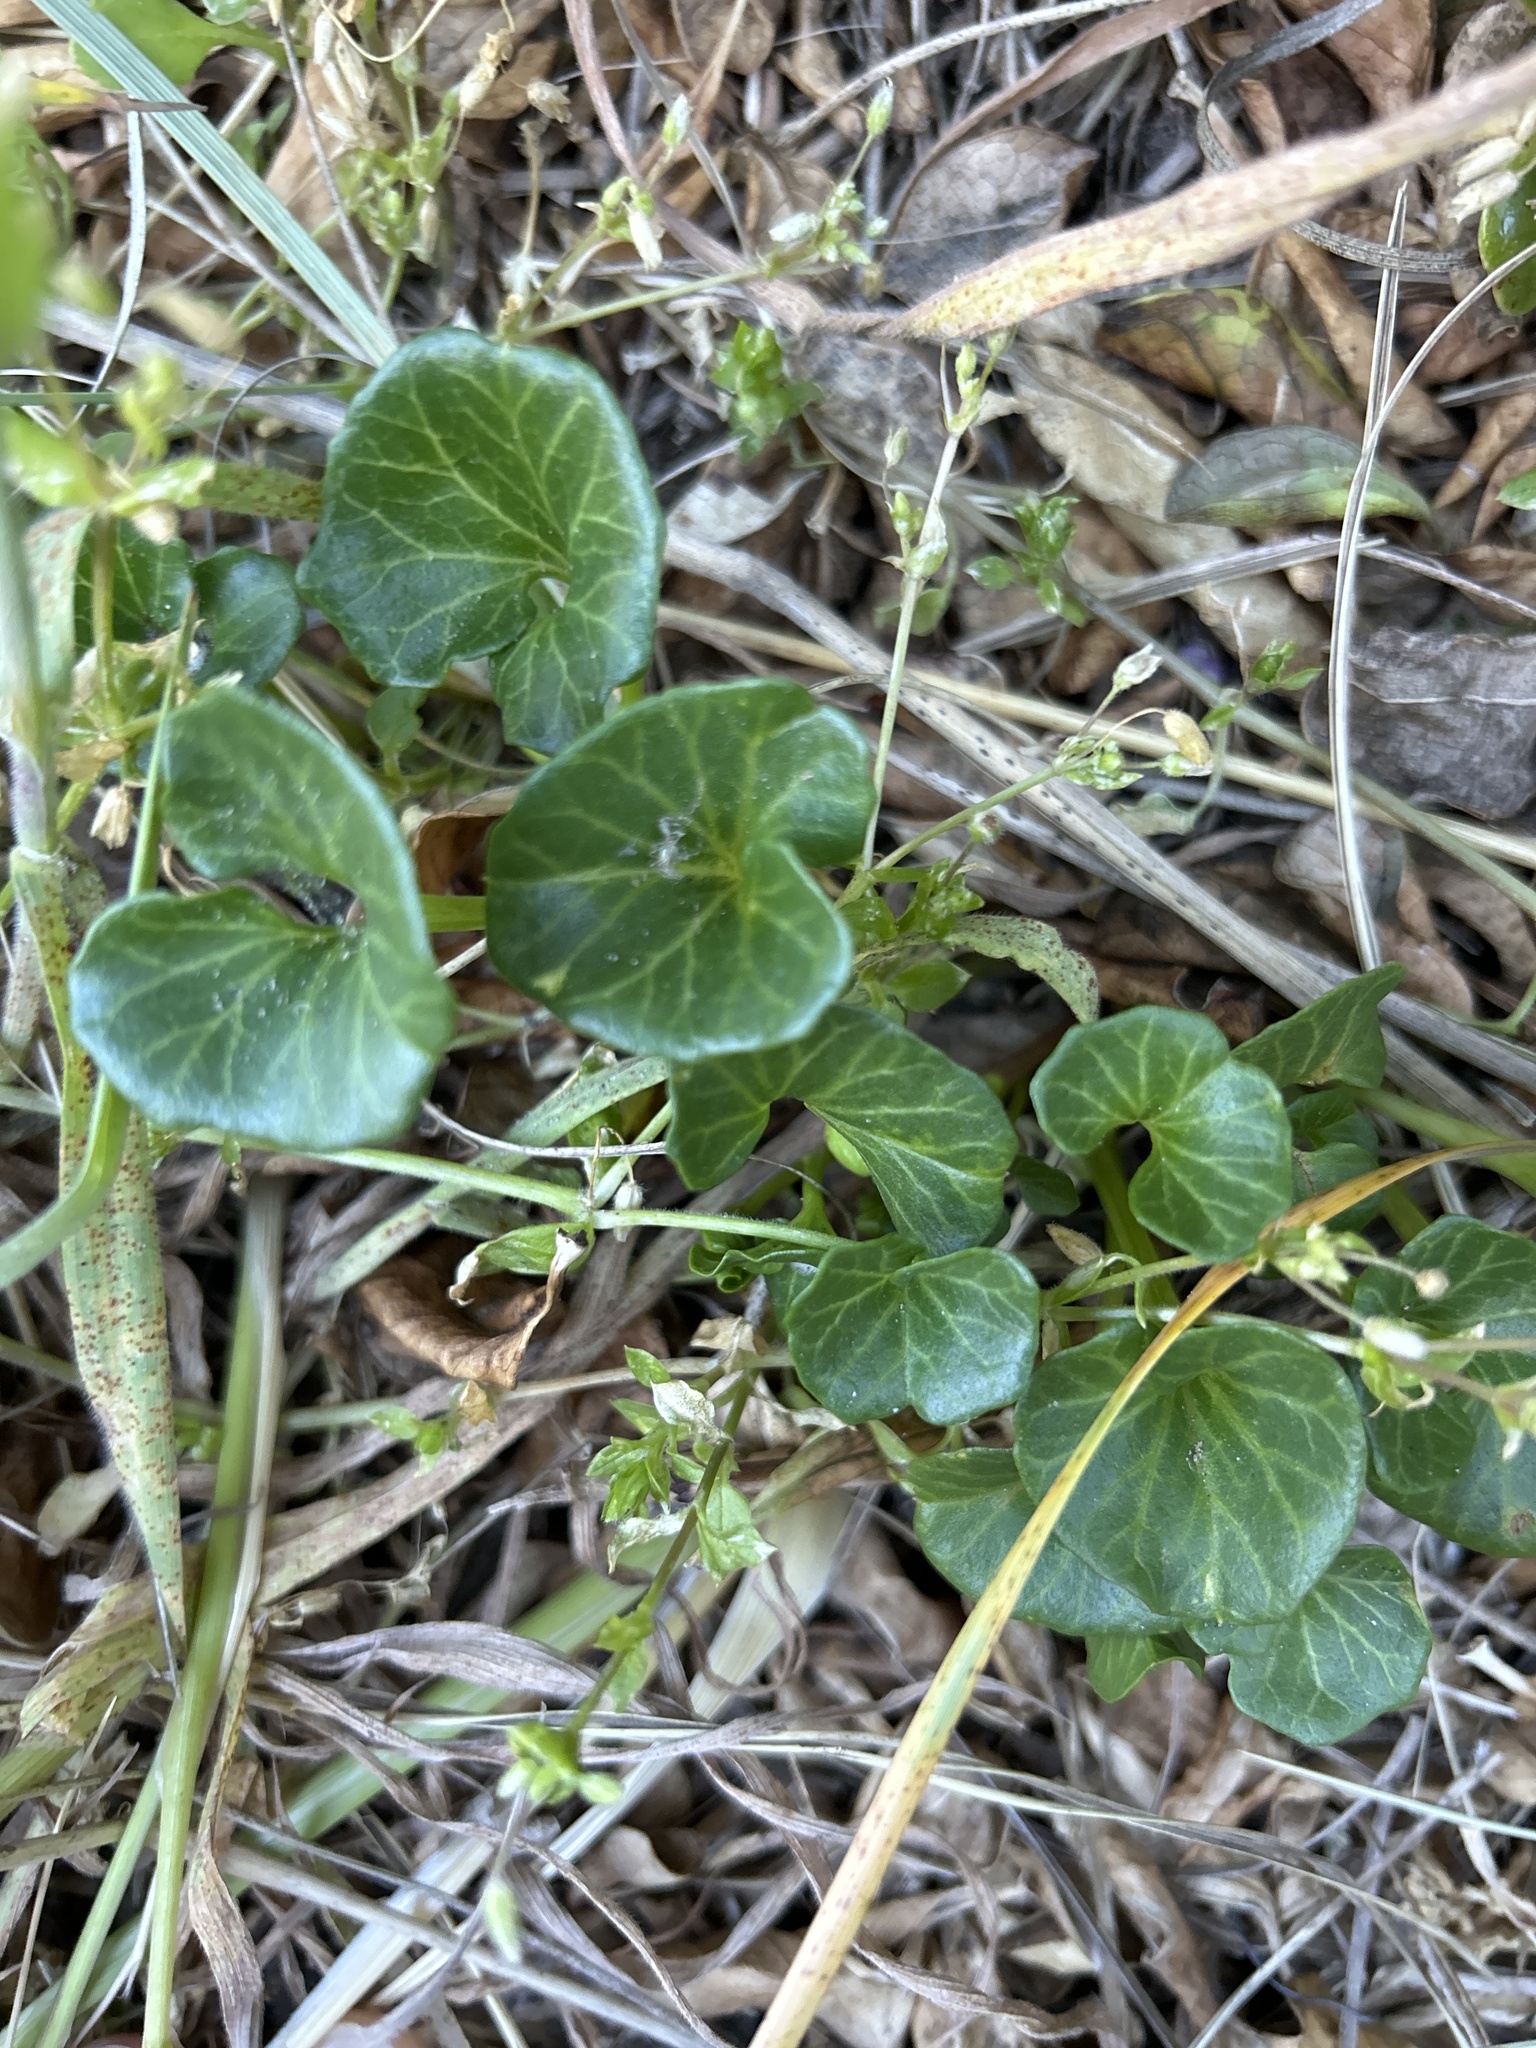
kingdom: Plantae
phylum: Tracheophyta
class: Magnoliopsida
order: Solanales
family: Convolvulaceae
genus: Calystegia
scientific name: Calystegia soldanella
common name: Sea bindweed
